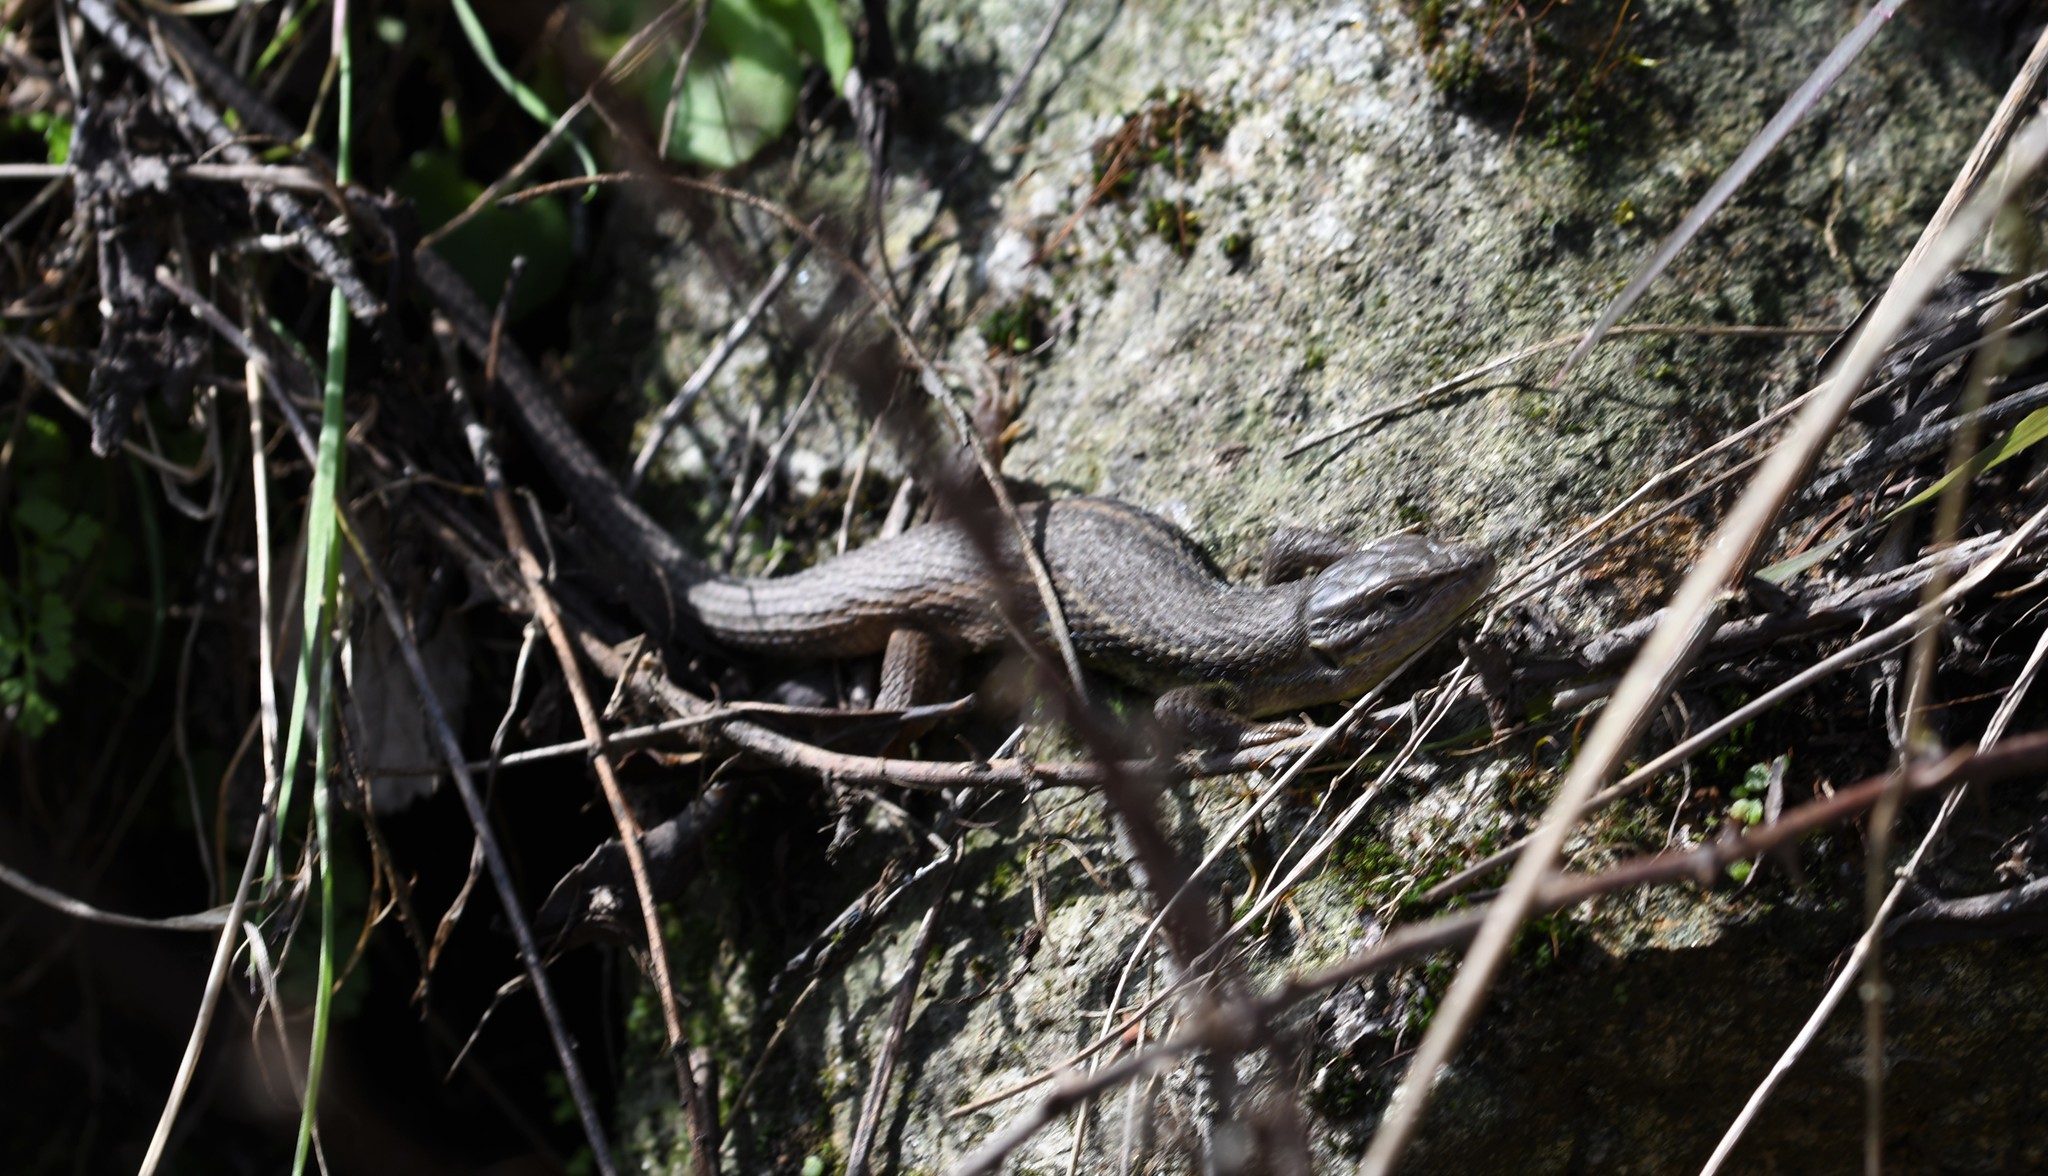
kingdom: Animalia
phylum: Chordata
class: Squamata
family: Lacertidae
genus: Psammodromus
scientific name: Psammodromus algirus
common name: Algerian psammodromus
